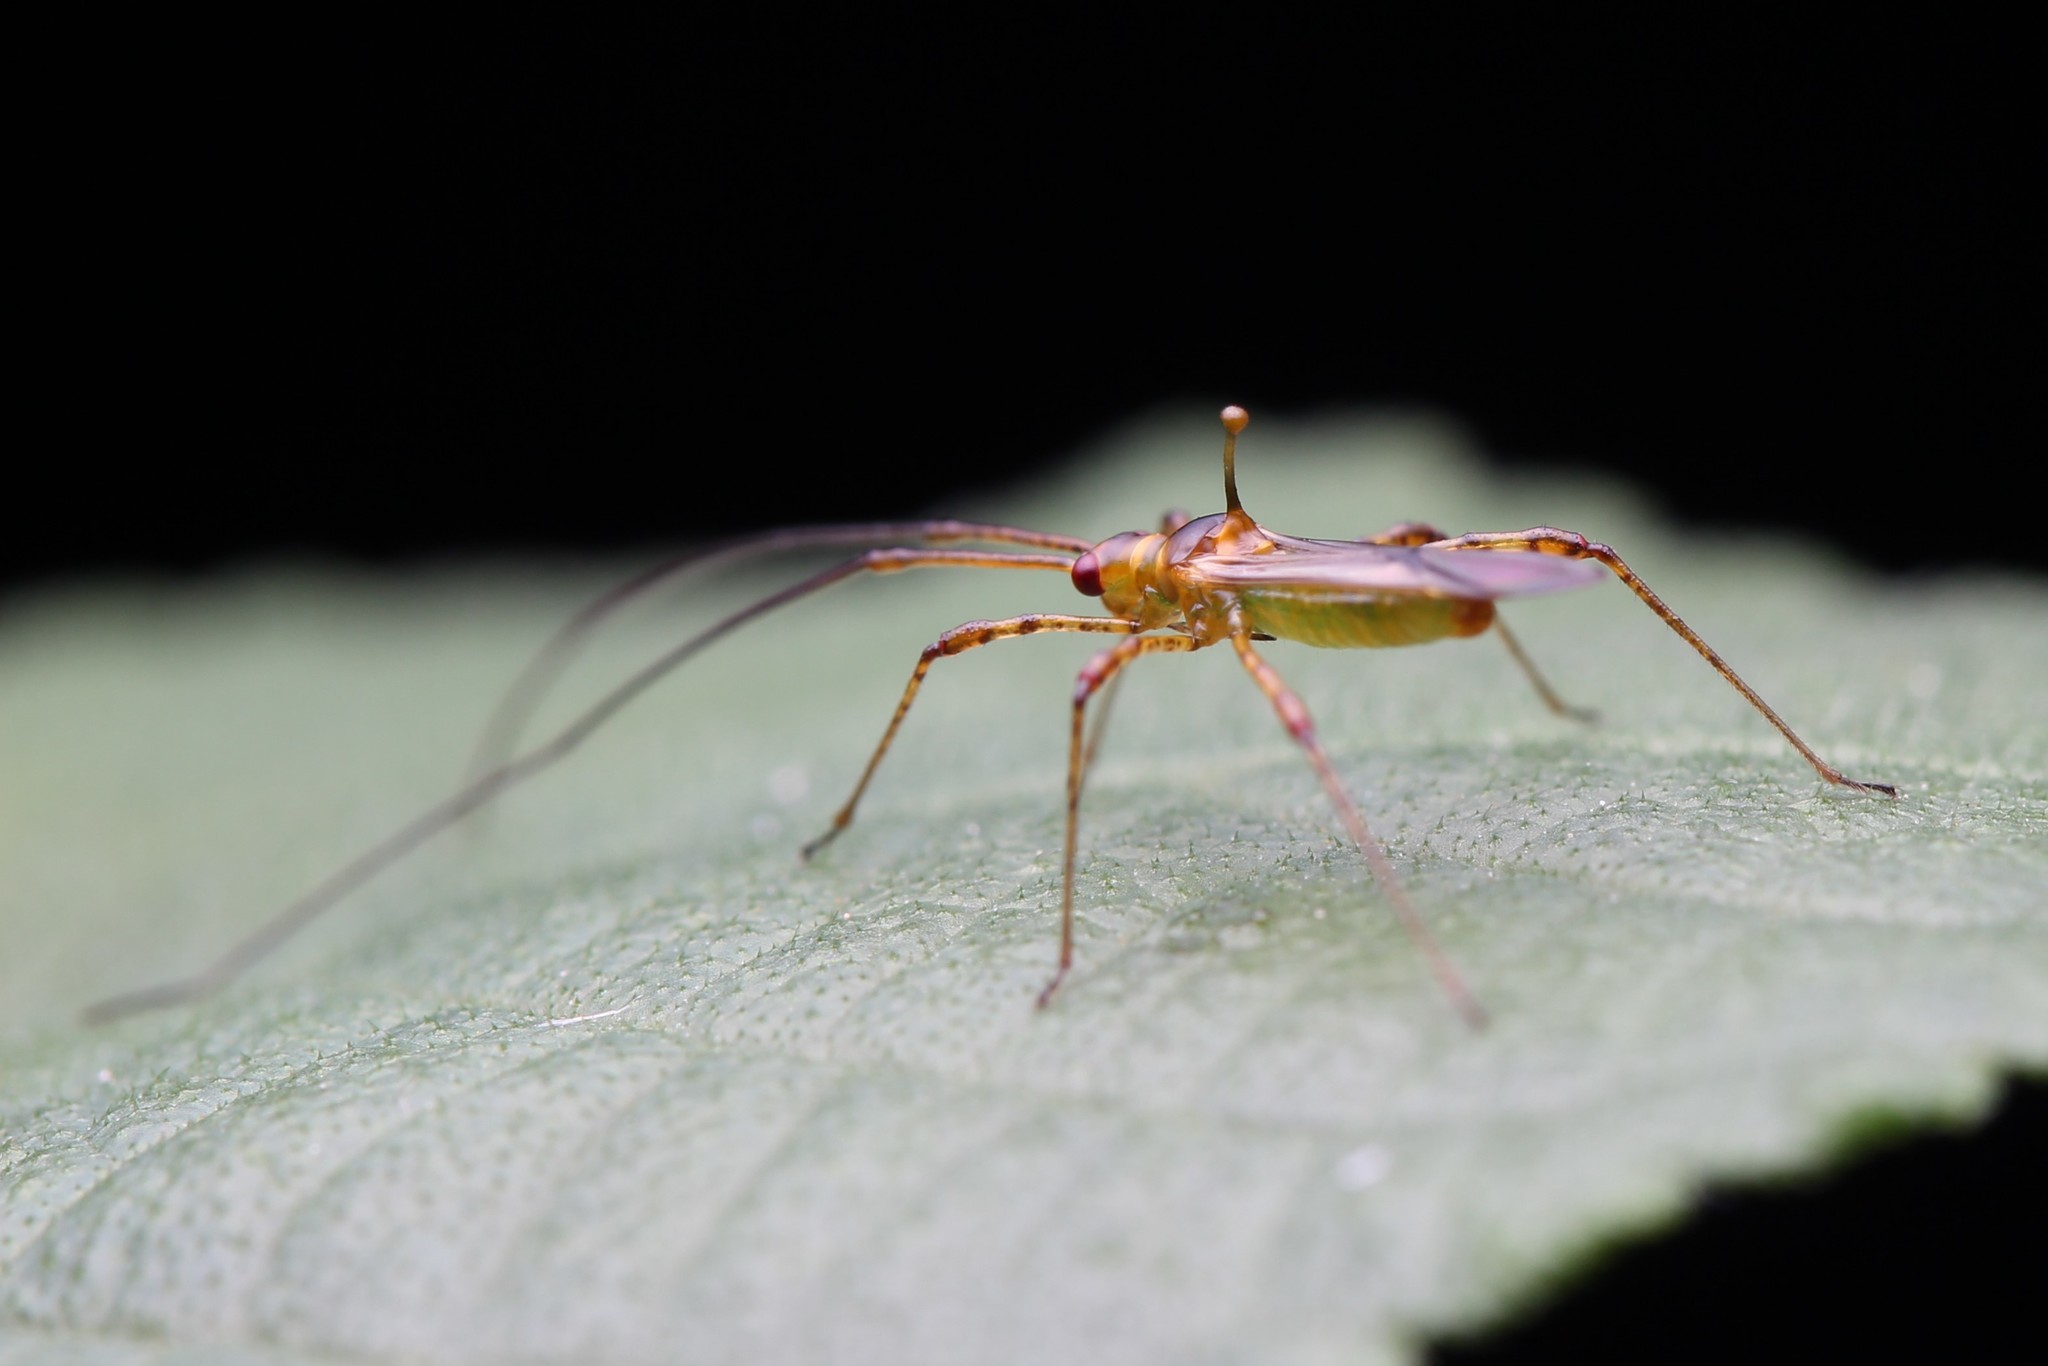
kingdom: Animalia
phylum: Arthropoda
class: Insecta
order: Hemiptera
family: Miridae
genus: Helopeltis
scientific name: Helopeltis theivora
